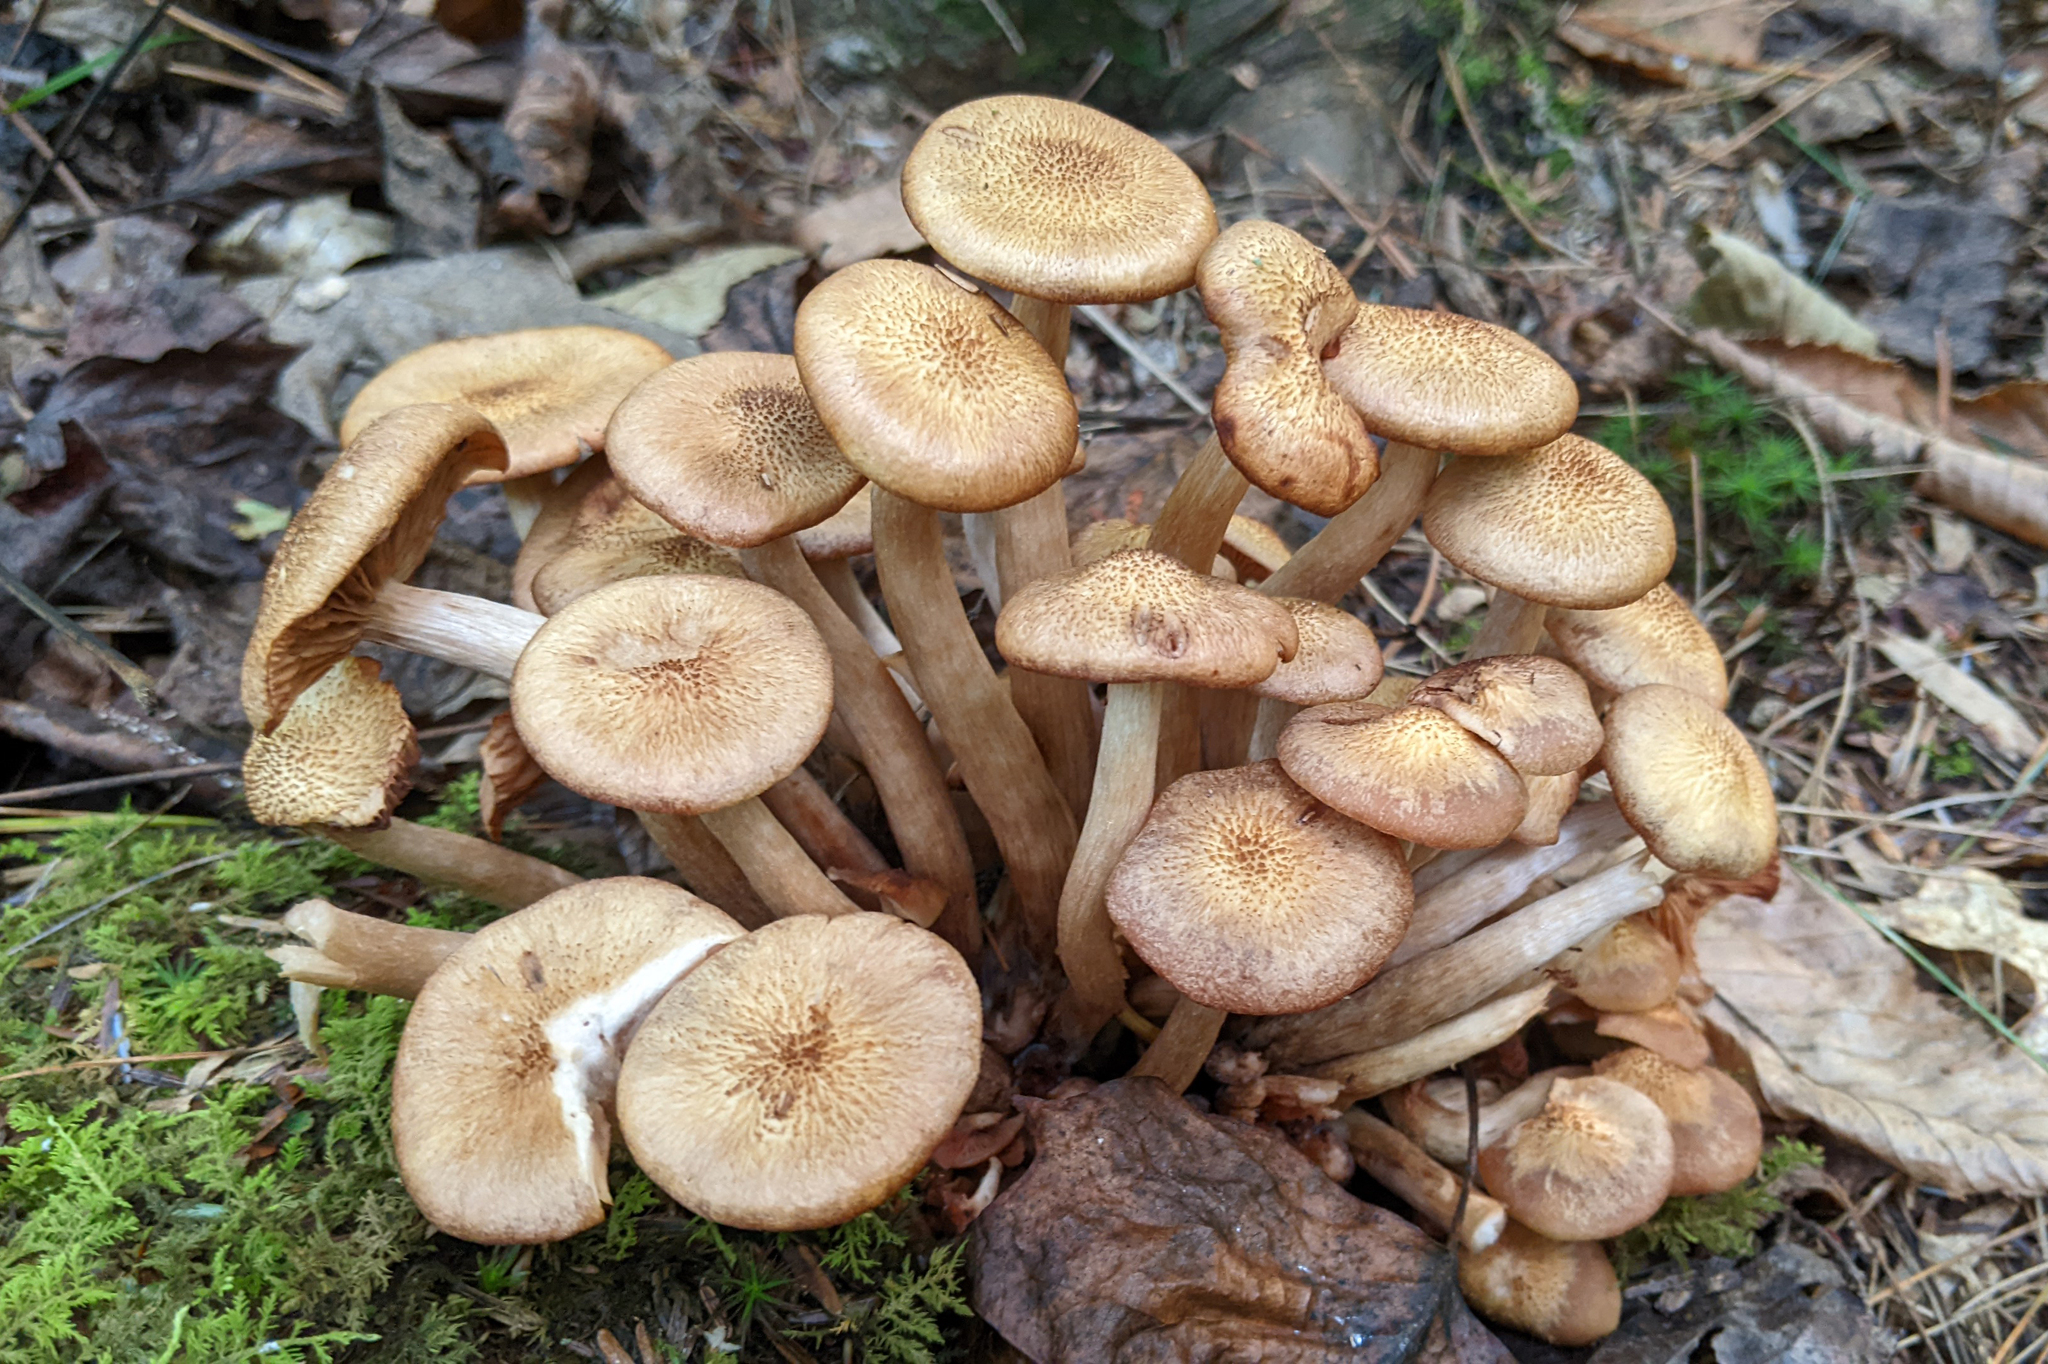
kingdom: Fungi
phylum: Basidiomycota
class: Agaricomycetes
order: Agaricales
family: Physalacriaceae
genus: Desarmillaria
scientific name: Desarmillaria caespitosa
